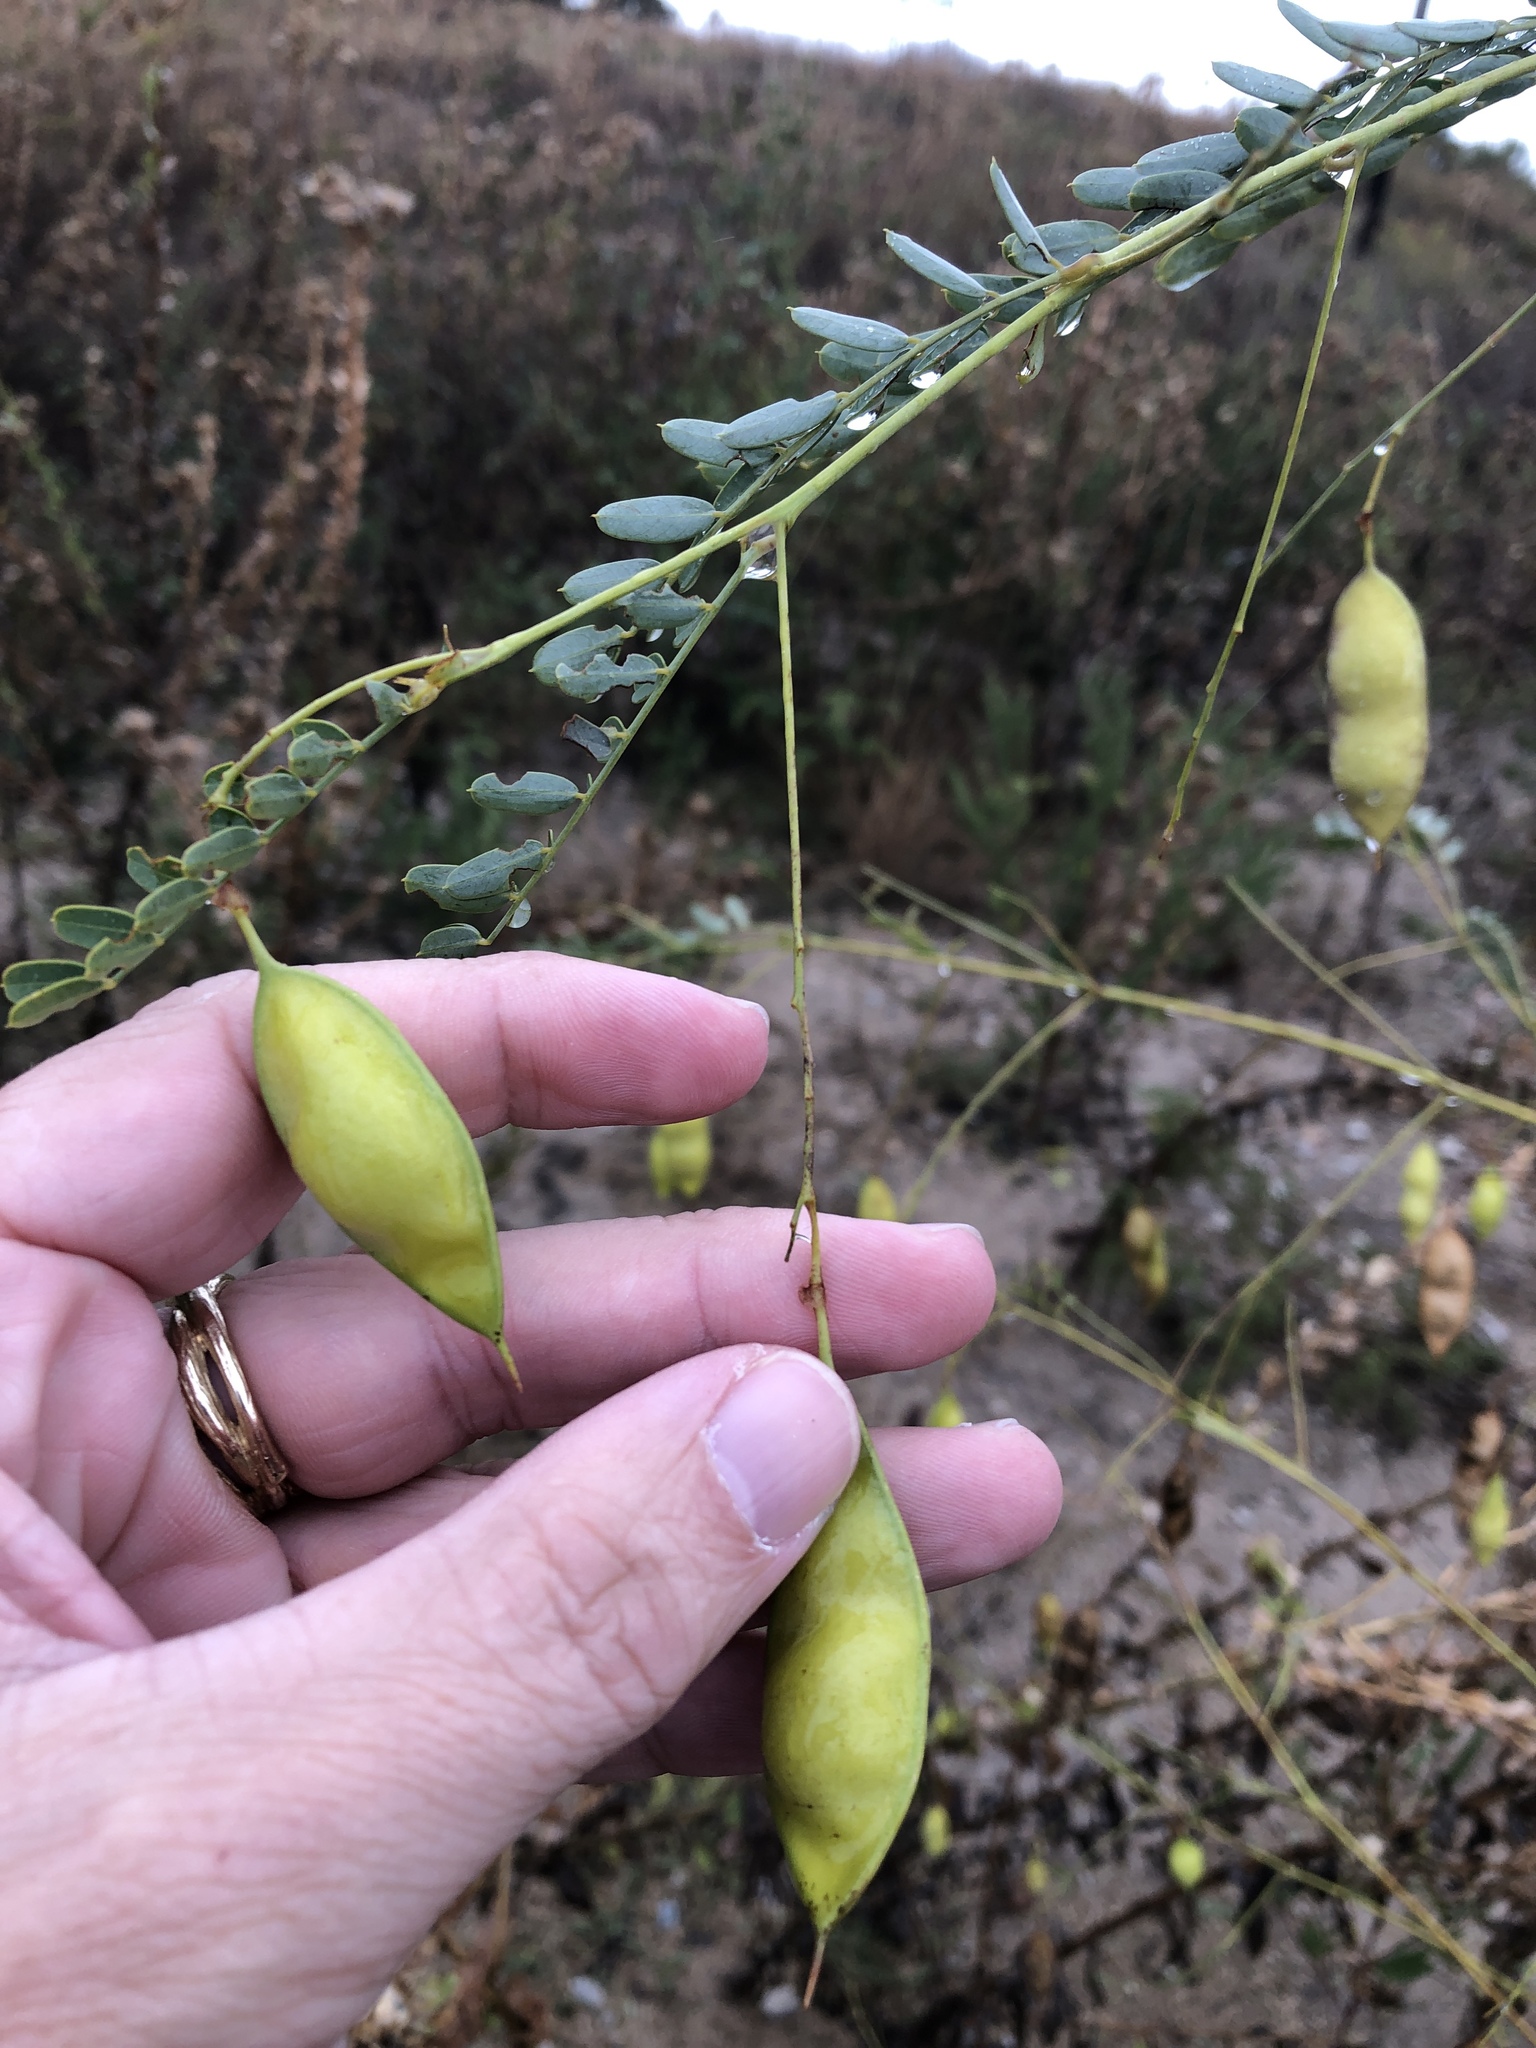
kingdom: Plantae
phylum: Tracheophyta
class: Magnoliopsida
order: Fabales
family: Fabaceae
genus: Sesbania
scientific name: Sesbania vesicaria
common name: Bagpod
